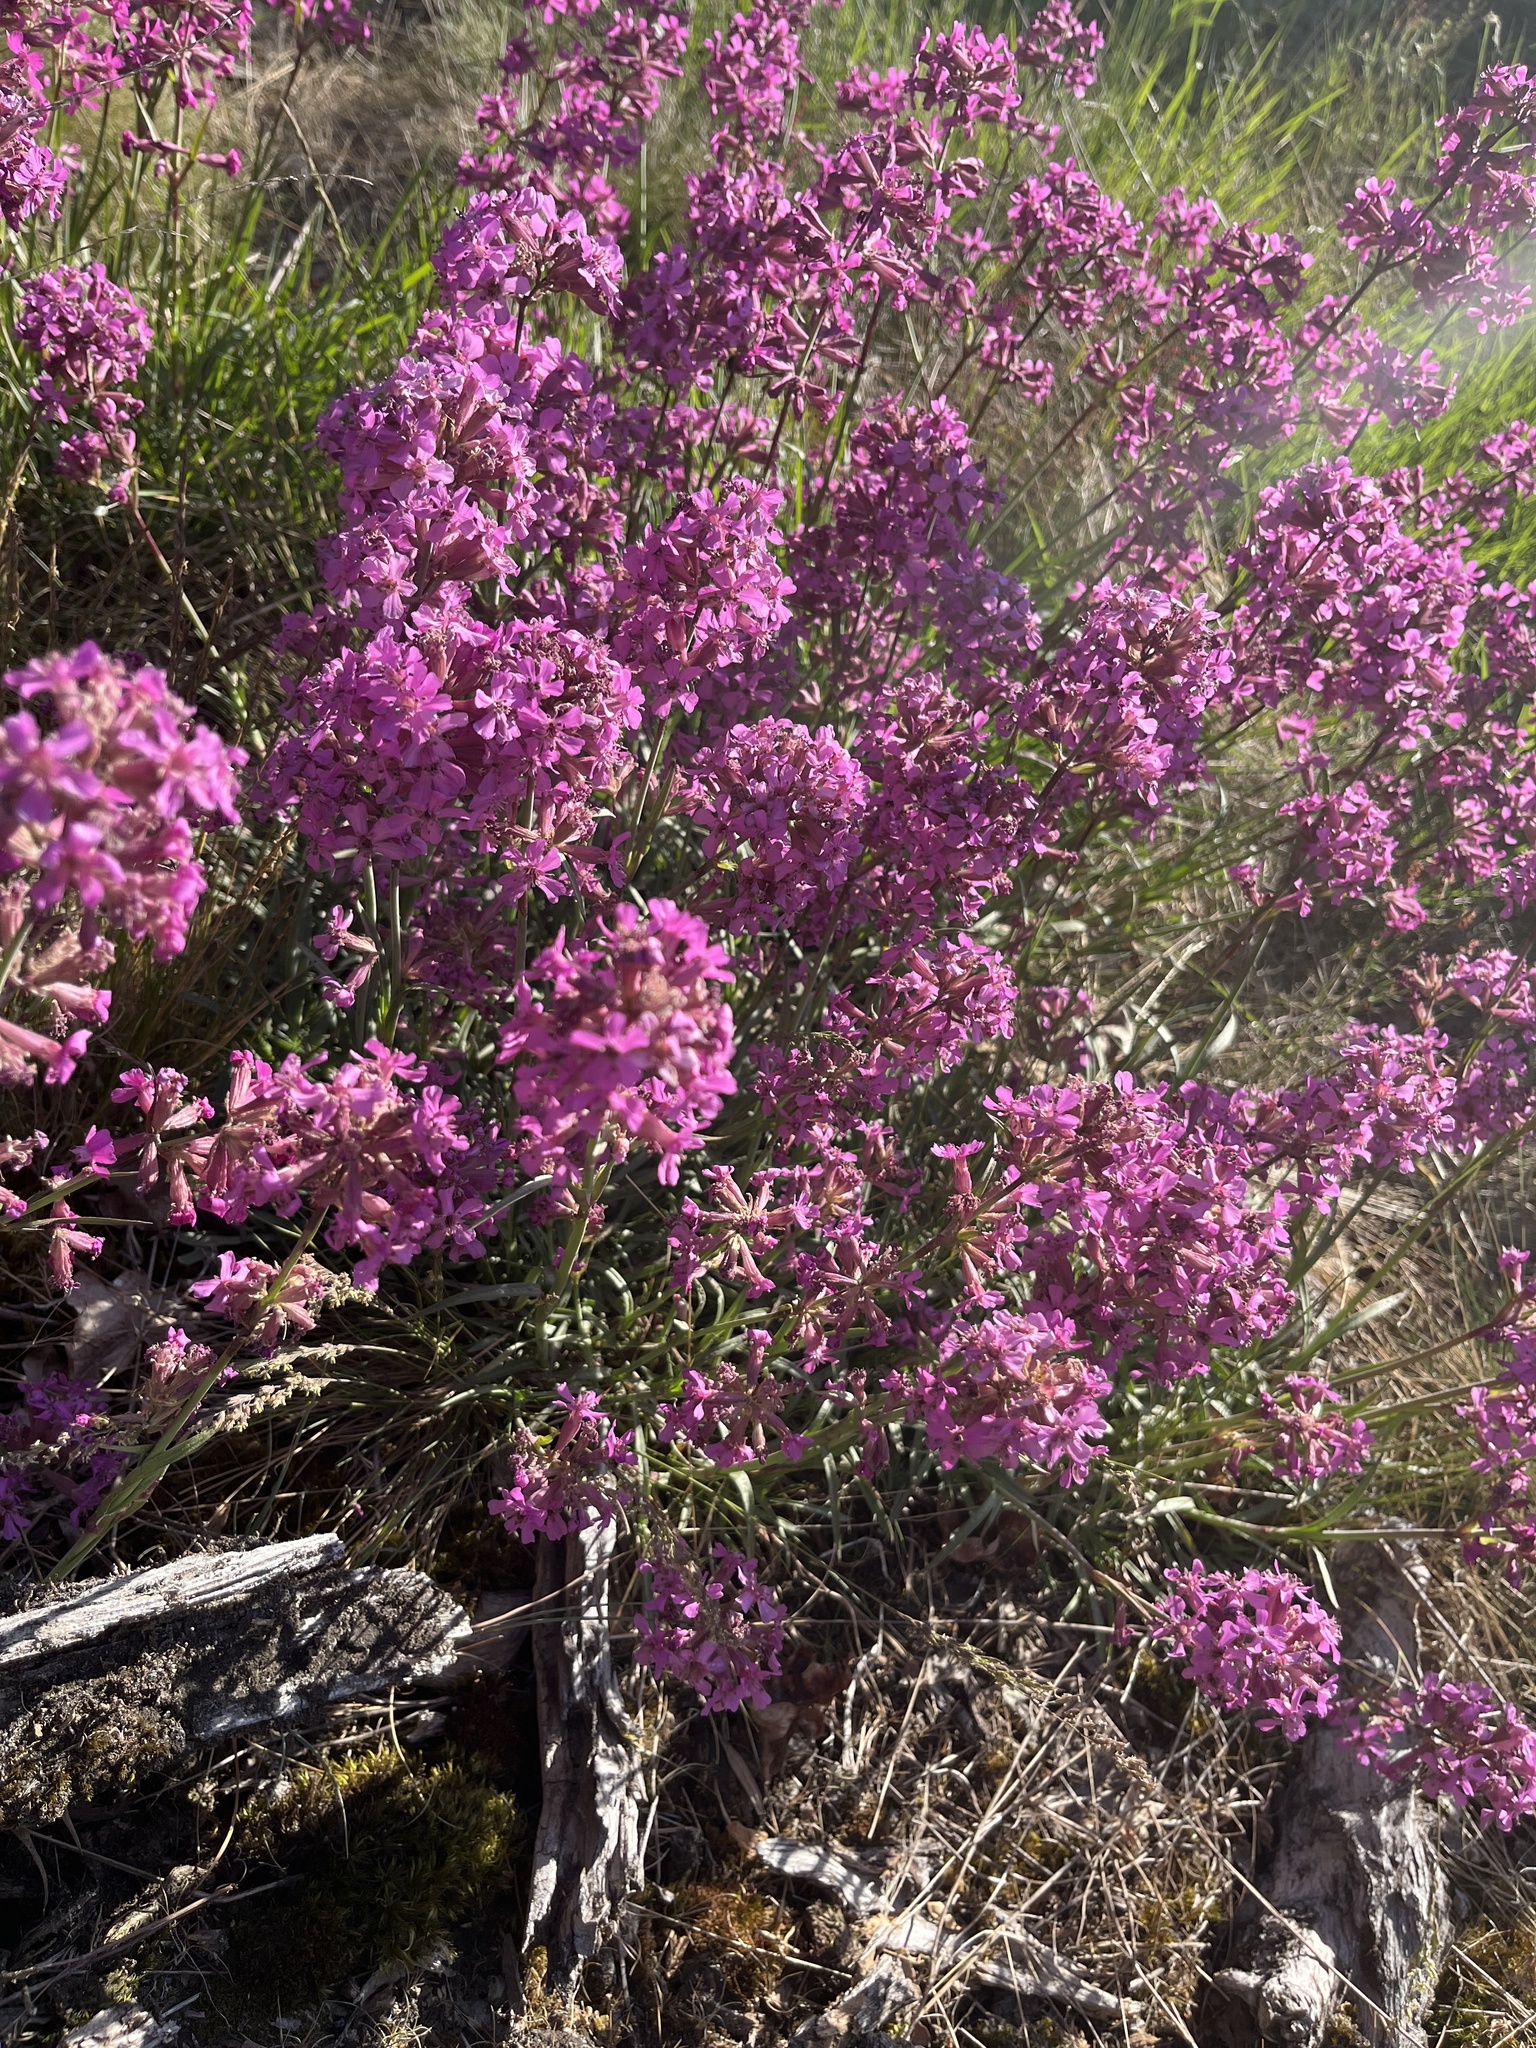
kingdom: Plantae
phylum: Tracheophyta
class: Magnoliopsida
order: Caryophyllales
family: Caryophyllaceae
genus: Viscaria
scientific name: Viscaria vulgaris
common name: Clammy campion
